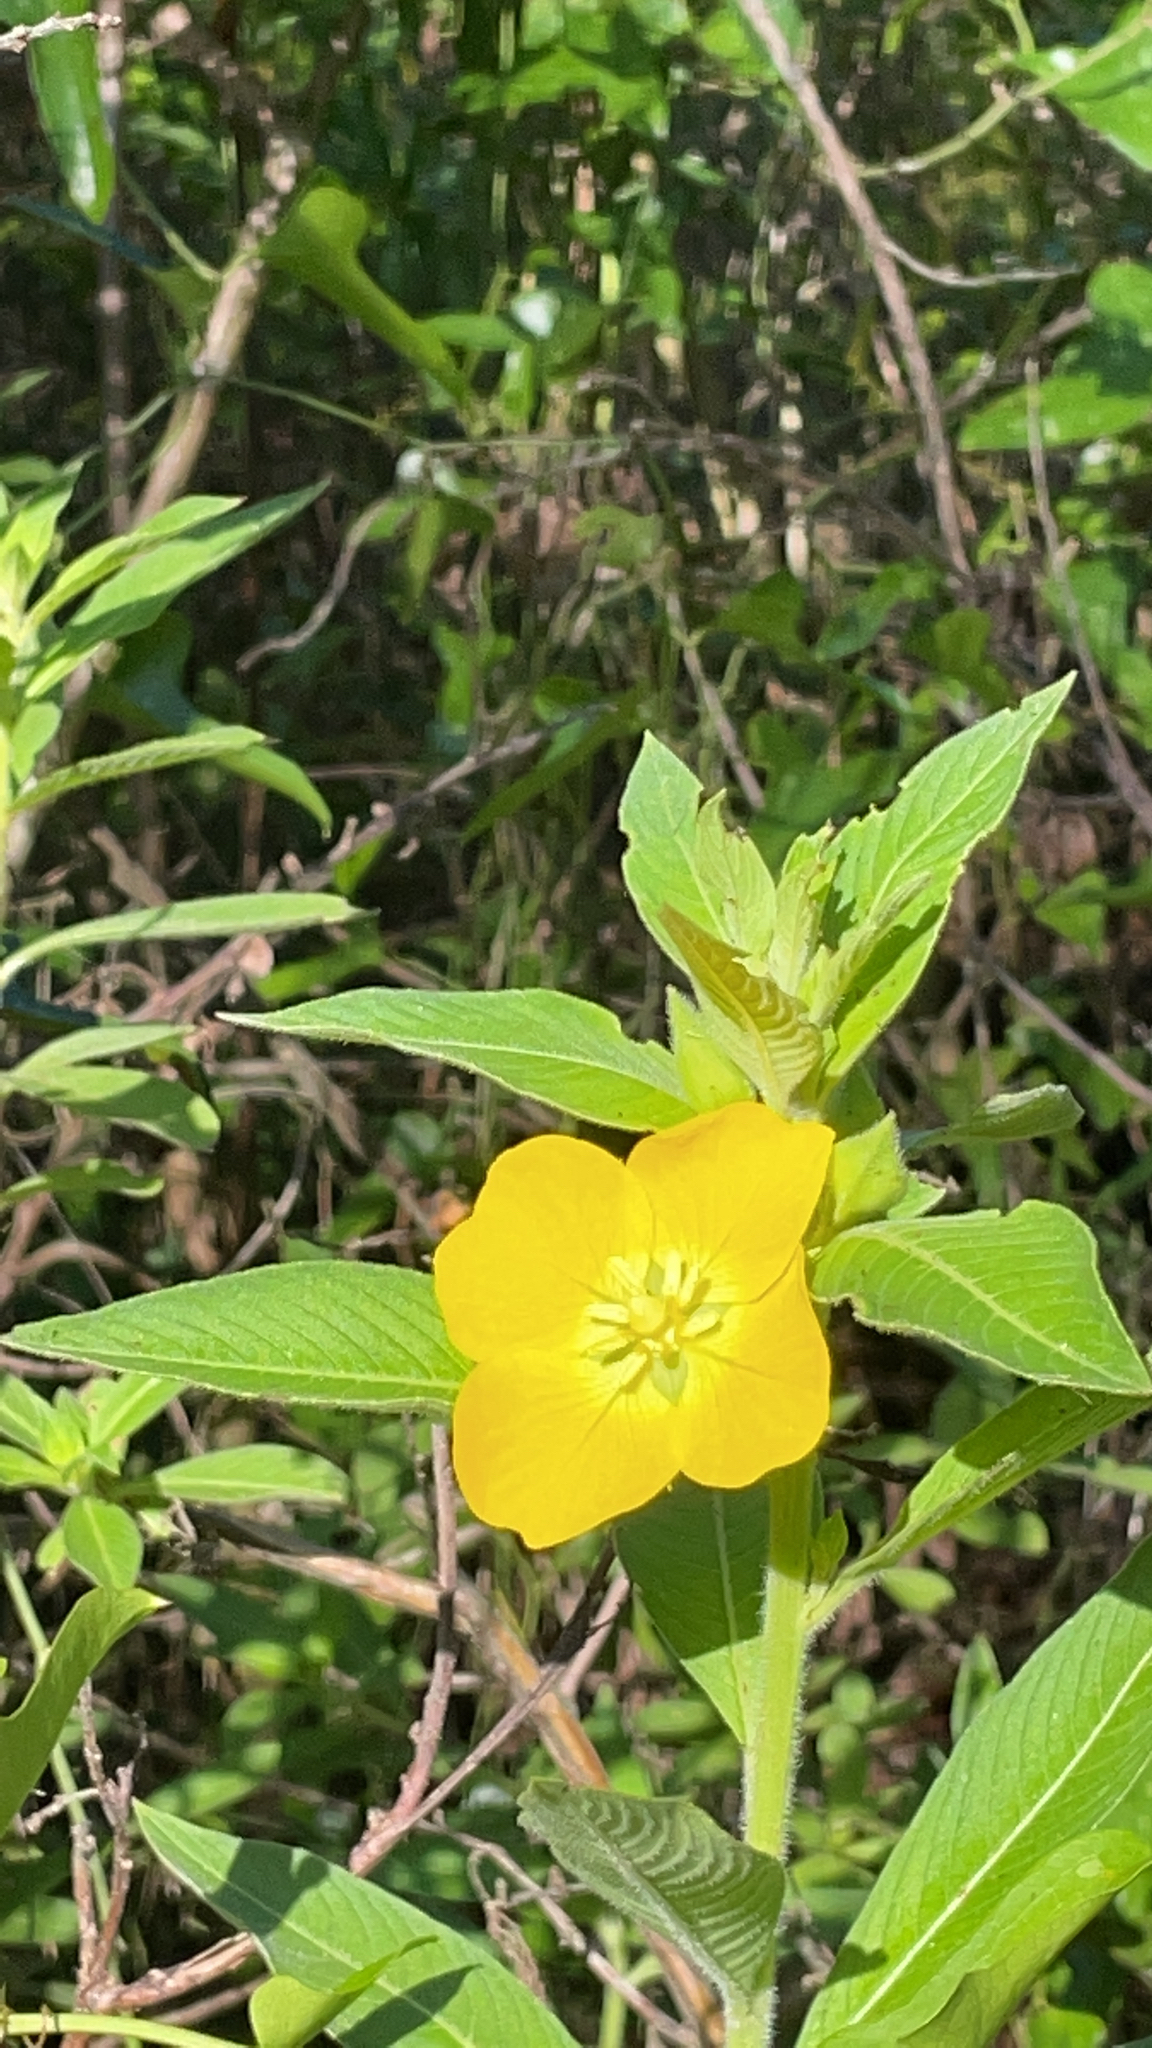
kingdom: Plantae
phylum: Tracheophyta
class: Magnoliopsida
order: Myrtales
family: Onagraceae
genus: Ludwigia
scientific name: Ludwigia peruviana
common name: Peruvian primrose-willow
